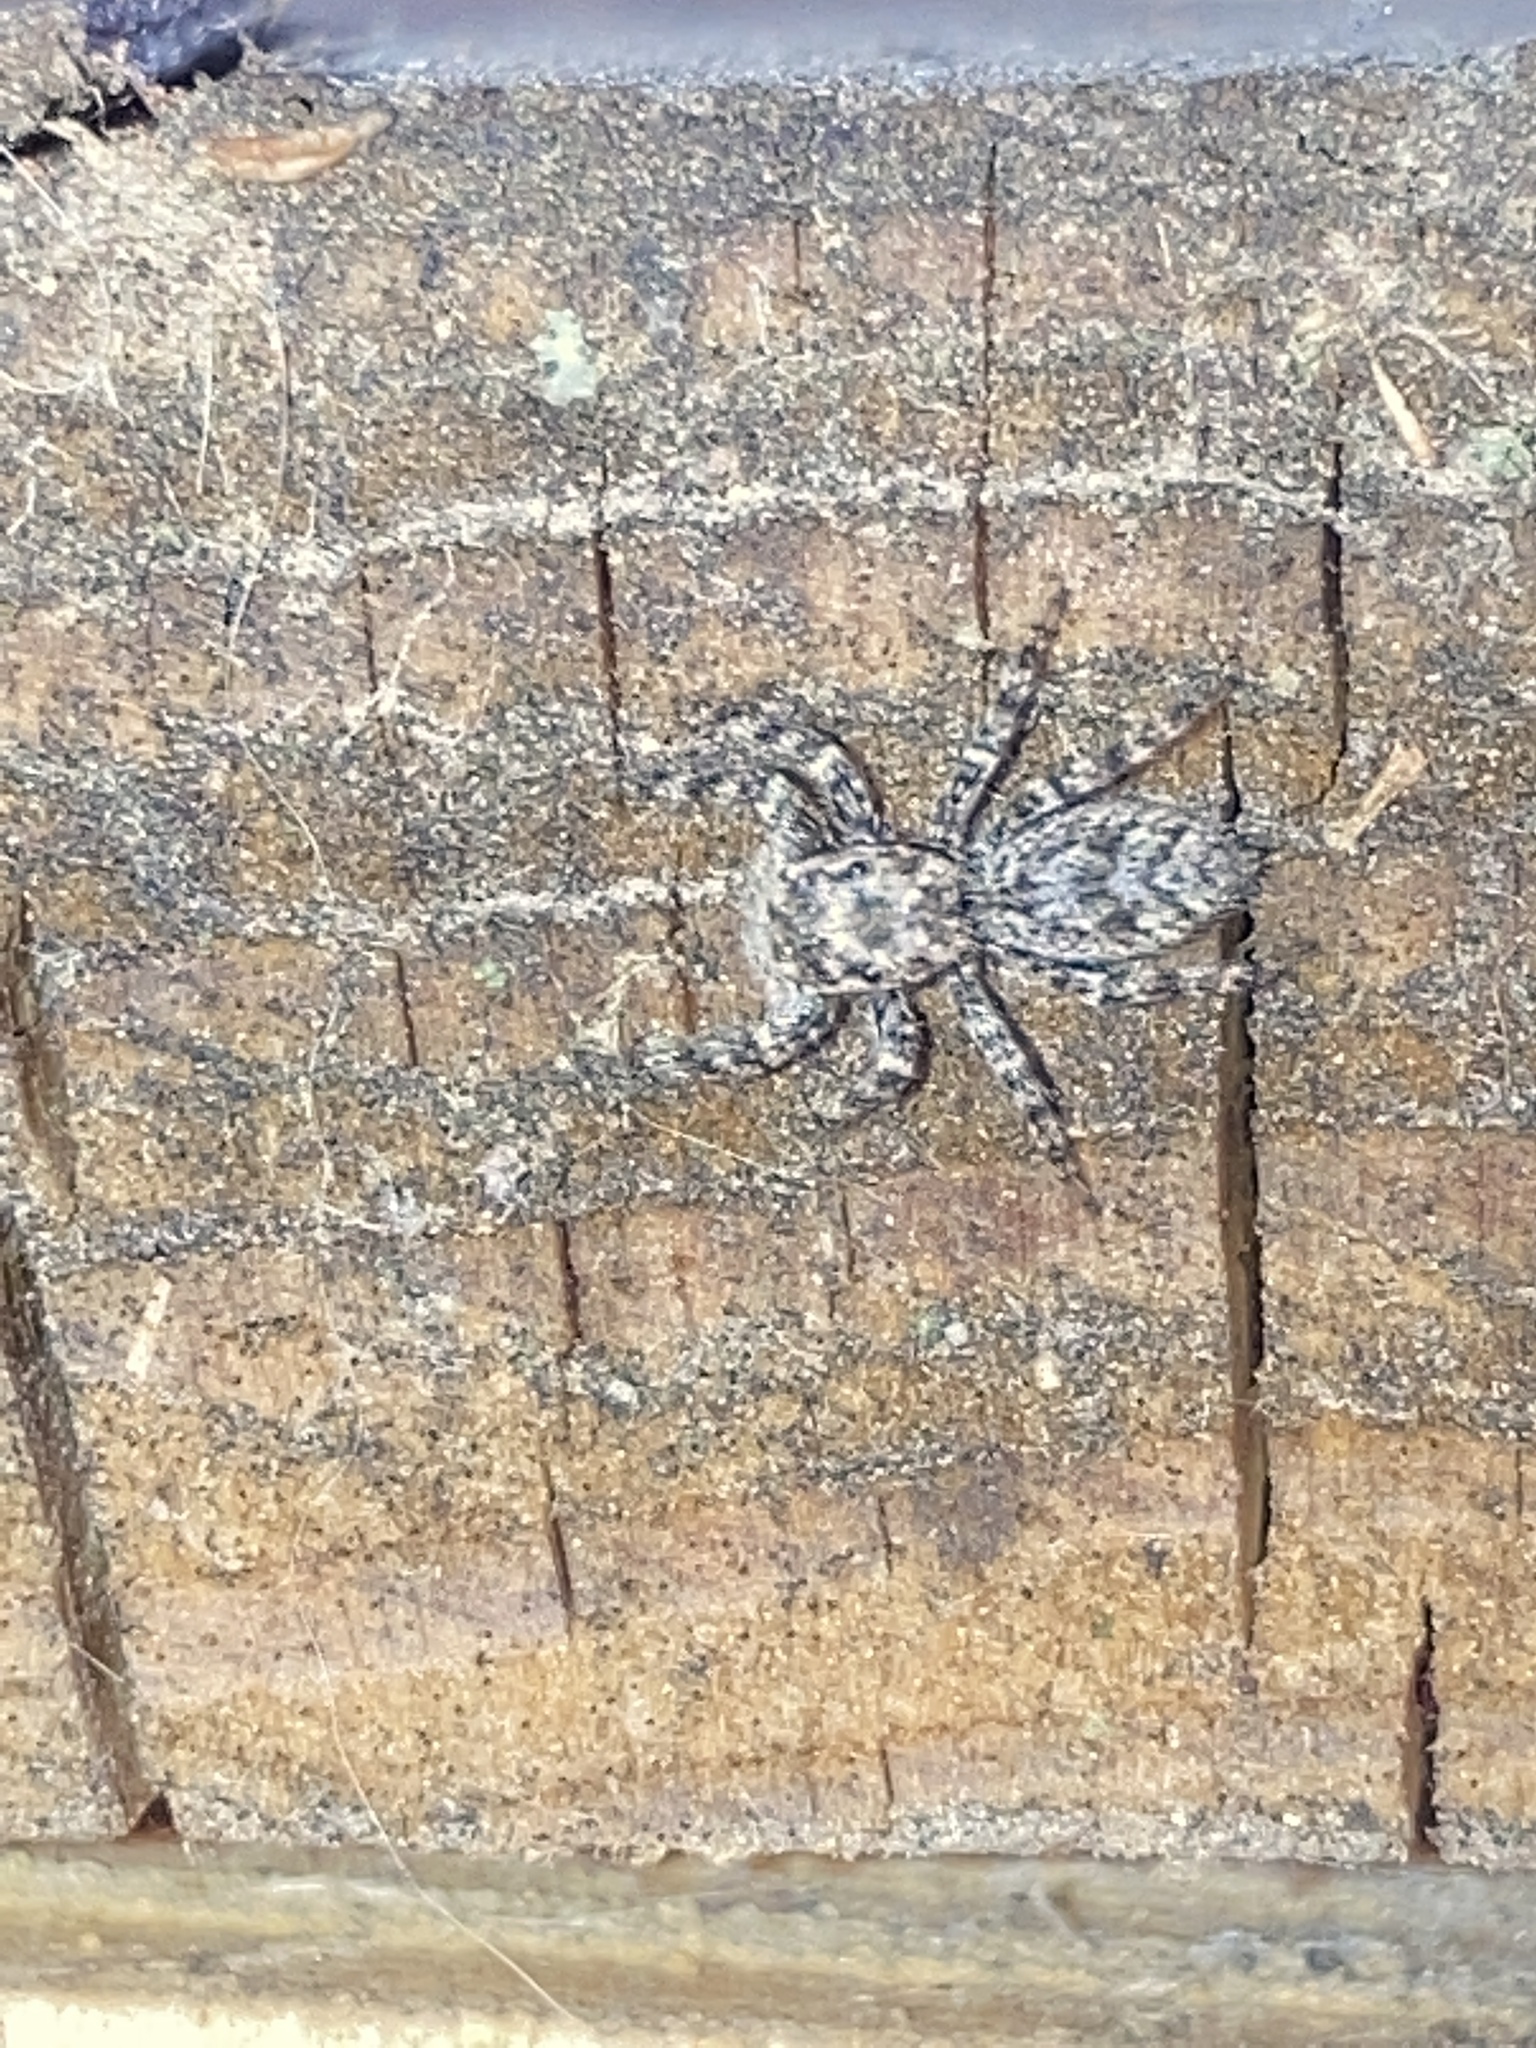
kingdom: Animalia
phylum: Arthropoda
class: Arachnida
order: Araneae
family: Salticidae
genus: Platycryptus
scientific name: Platycryptus undatus
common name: Tan jumping spider
